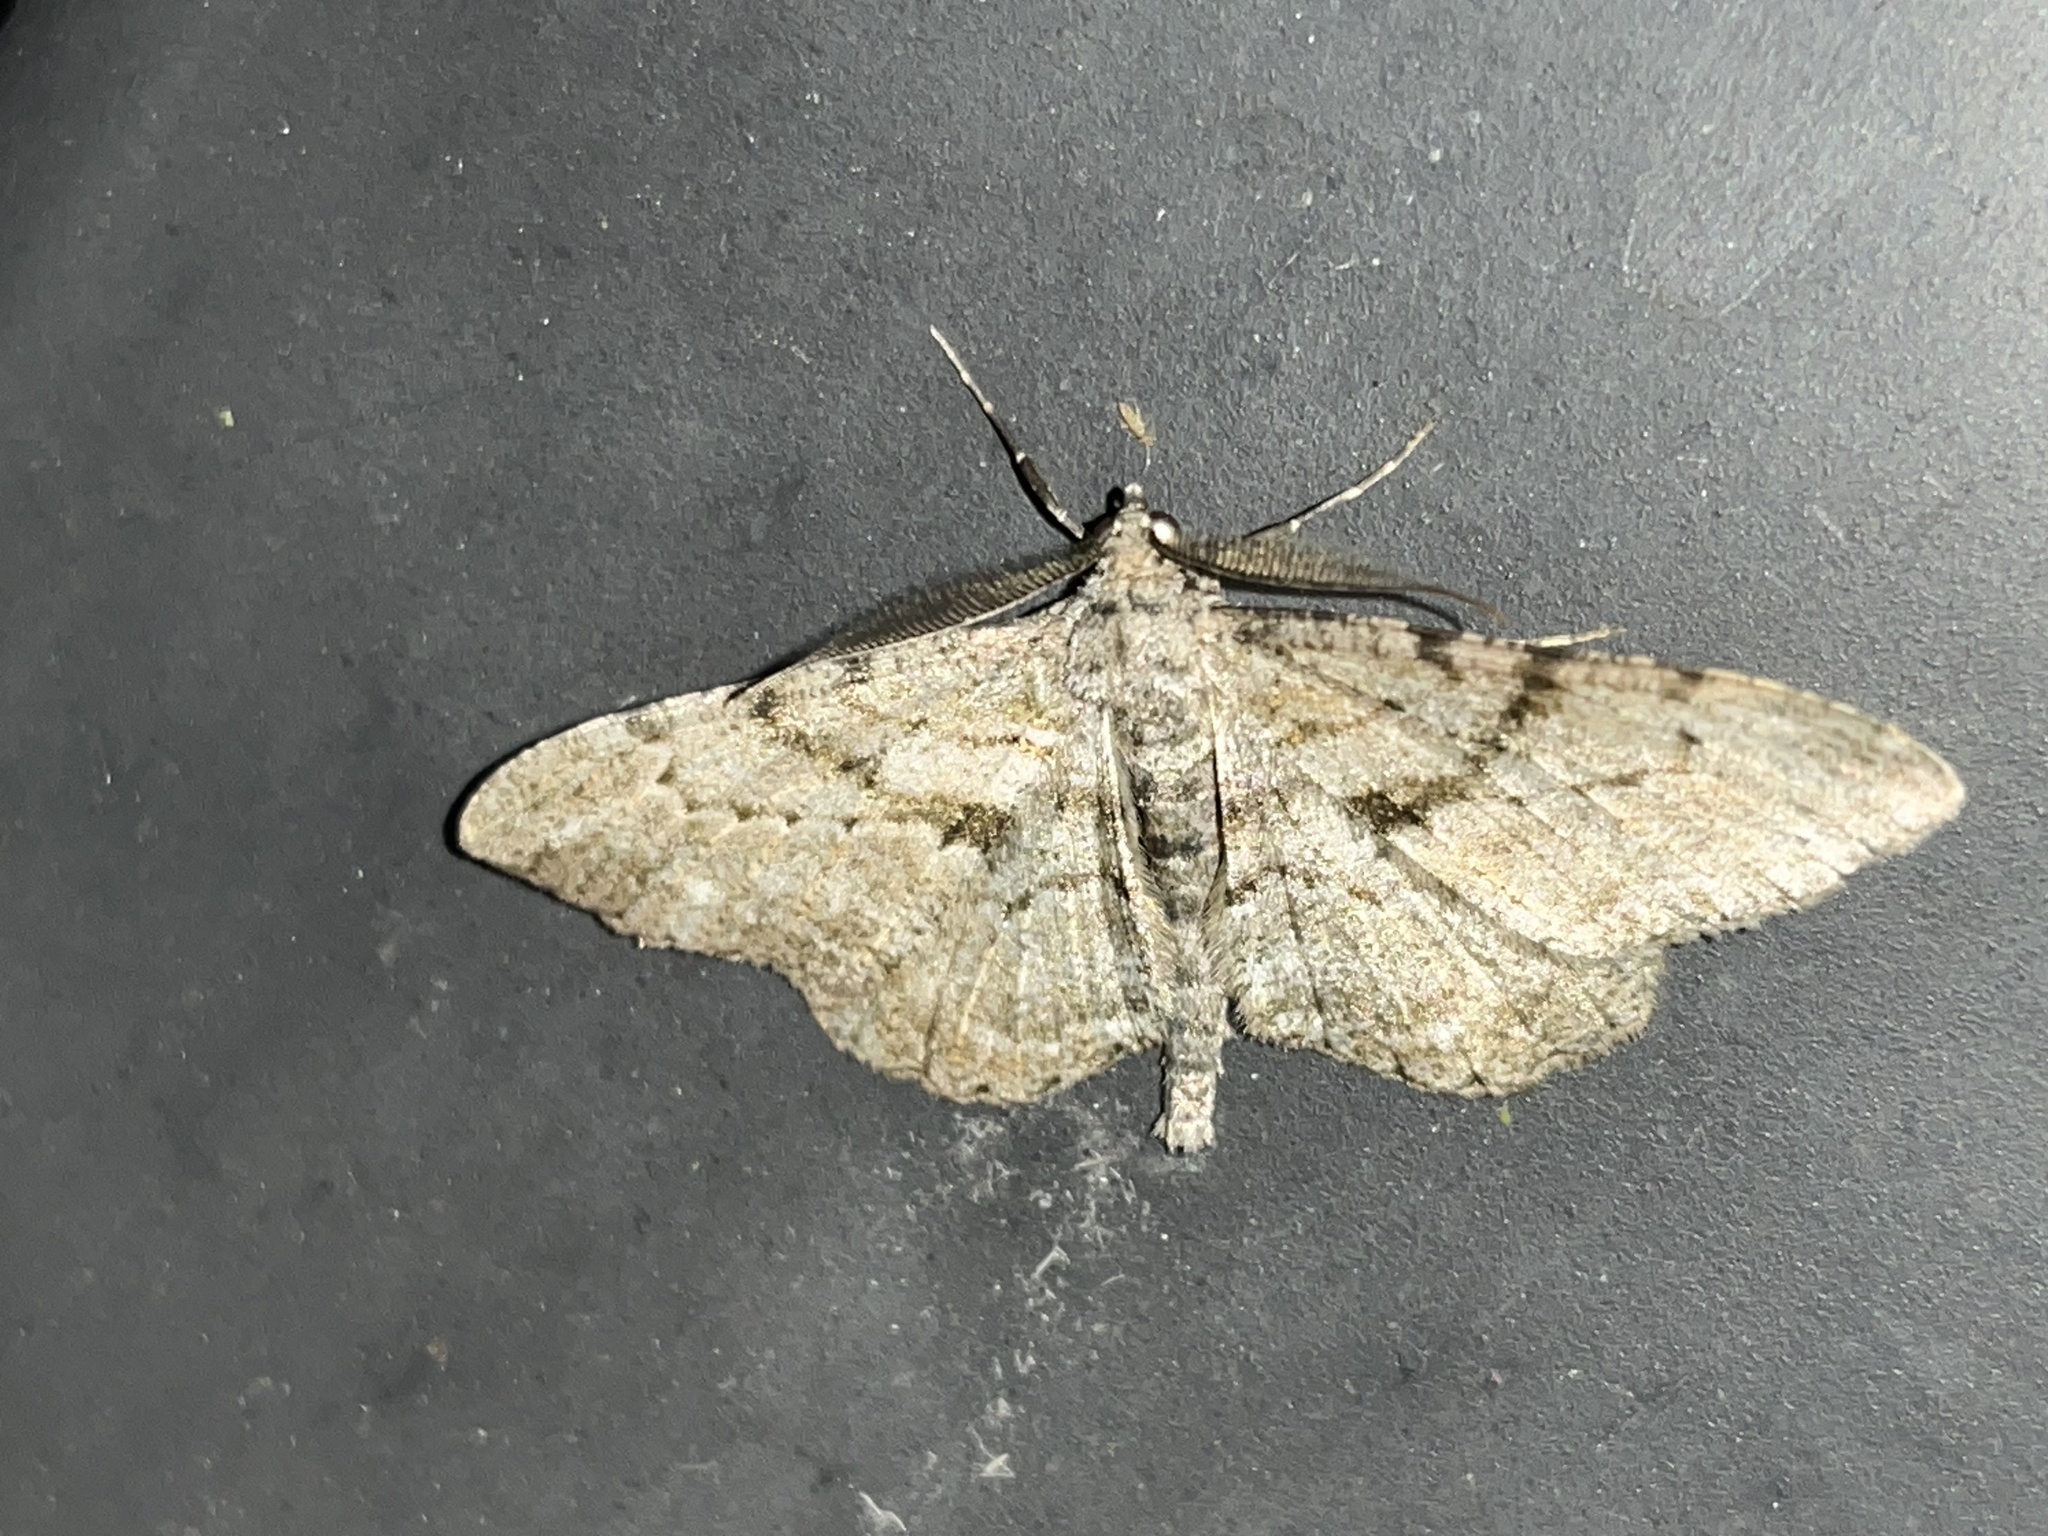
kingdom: Animalia
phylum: Arthropoda
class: Insecta
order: Lepidoptera
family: Geometridae
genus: Peribatodes
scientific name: Peribatodes rhomboidaria
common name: Willow beauty
